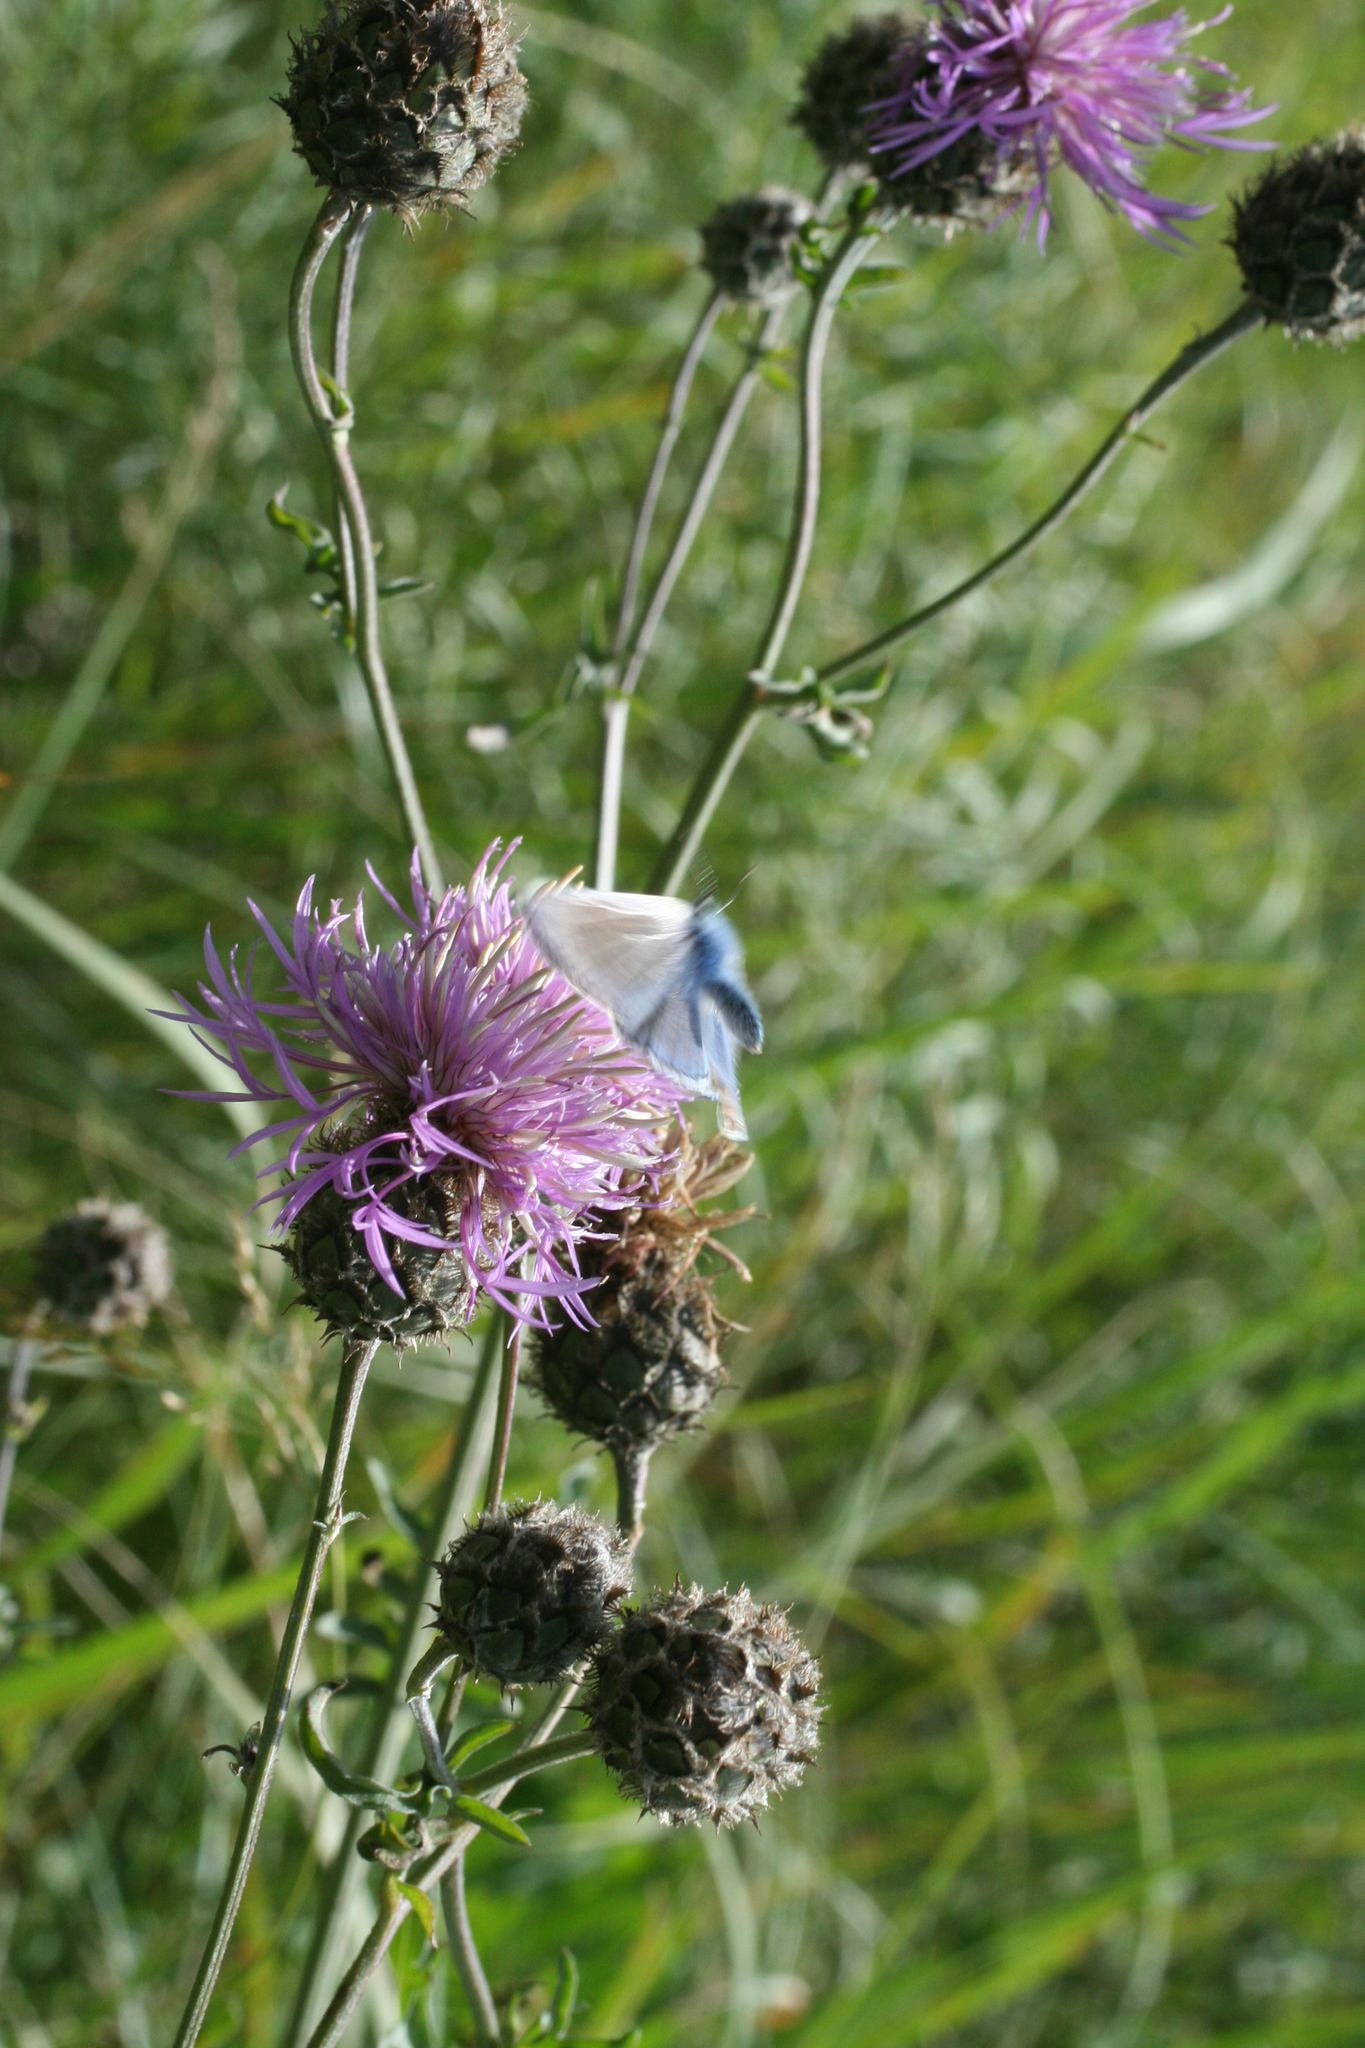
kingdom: Plantae
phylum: Tracheophyta
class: Magnoliopsida
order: Asterales
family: Asteraceae
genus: Centaurea
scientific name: Centaurea scabiosa
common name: Greater knapweed
